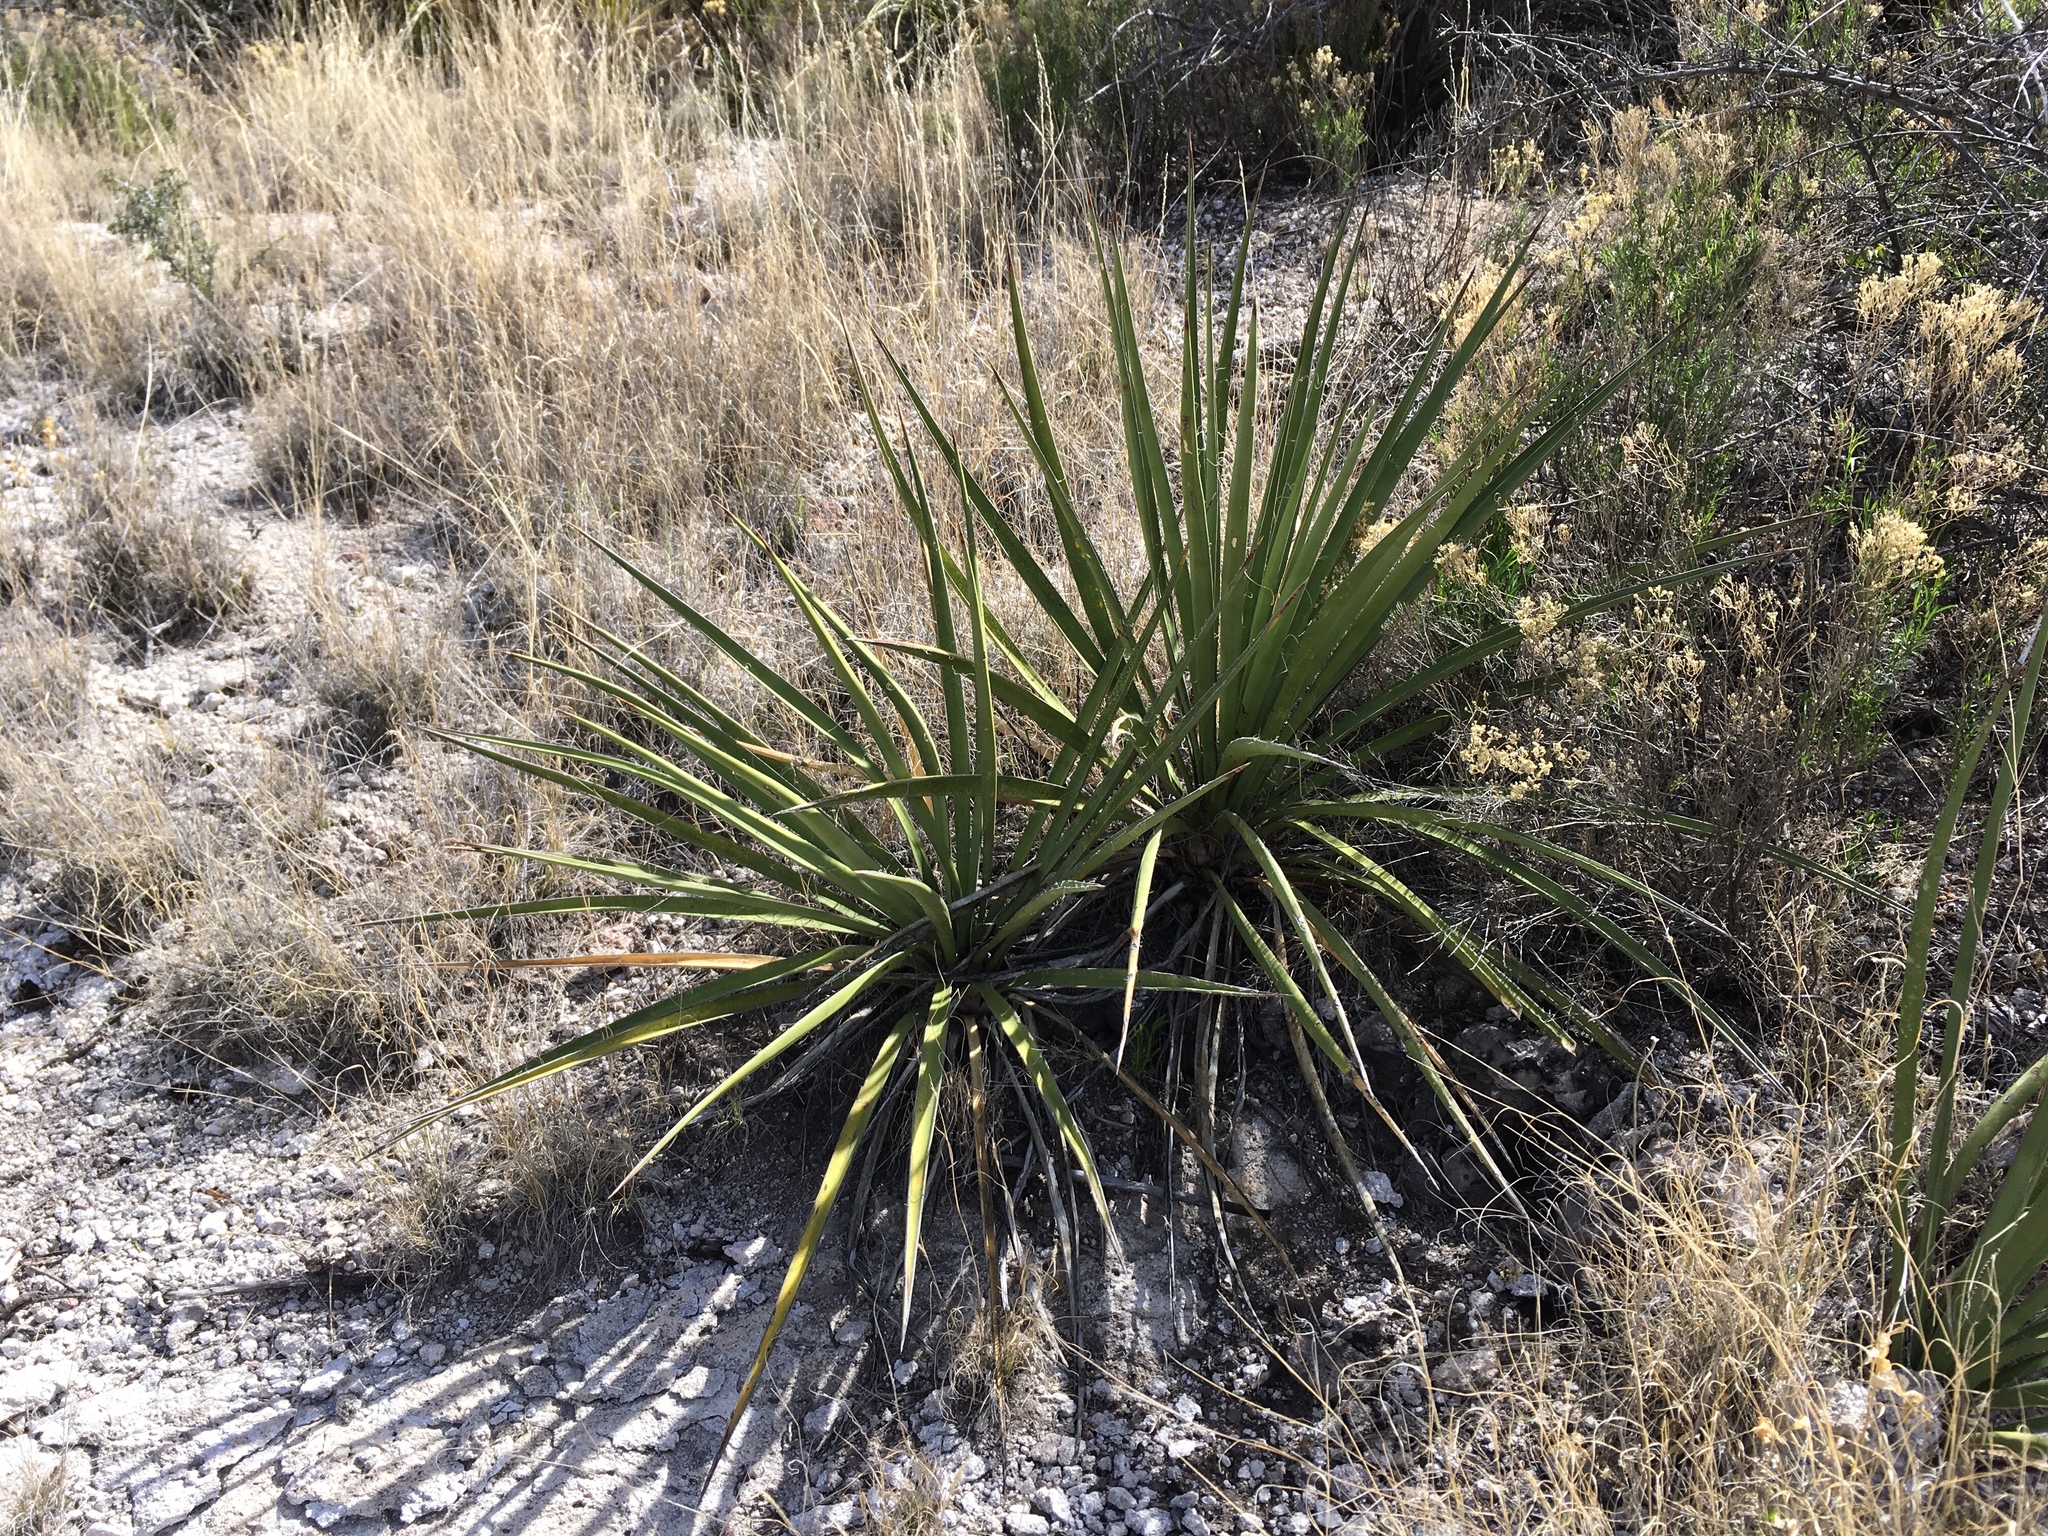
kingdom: Plantae
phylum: Tracheophyta
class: Liliopsida
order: Asparagales
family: Asparagaceae
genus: Yucca
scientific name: Yucca baccata
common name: Banana yucca
